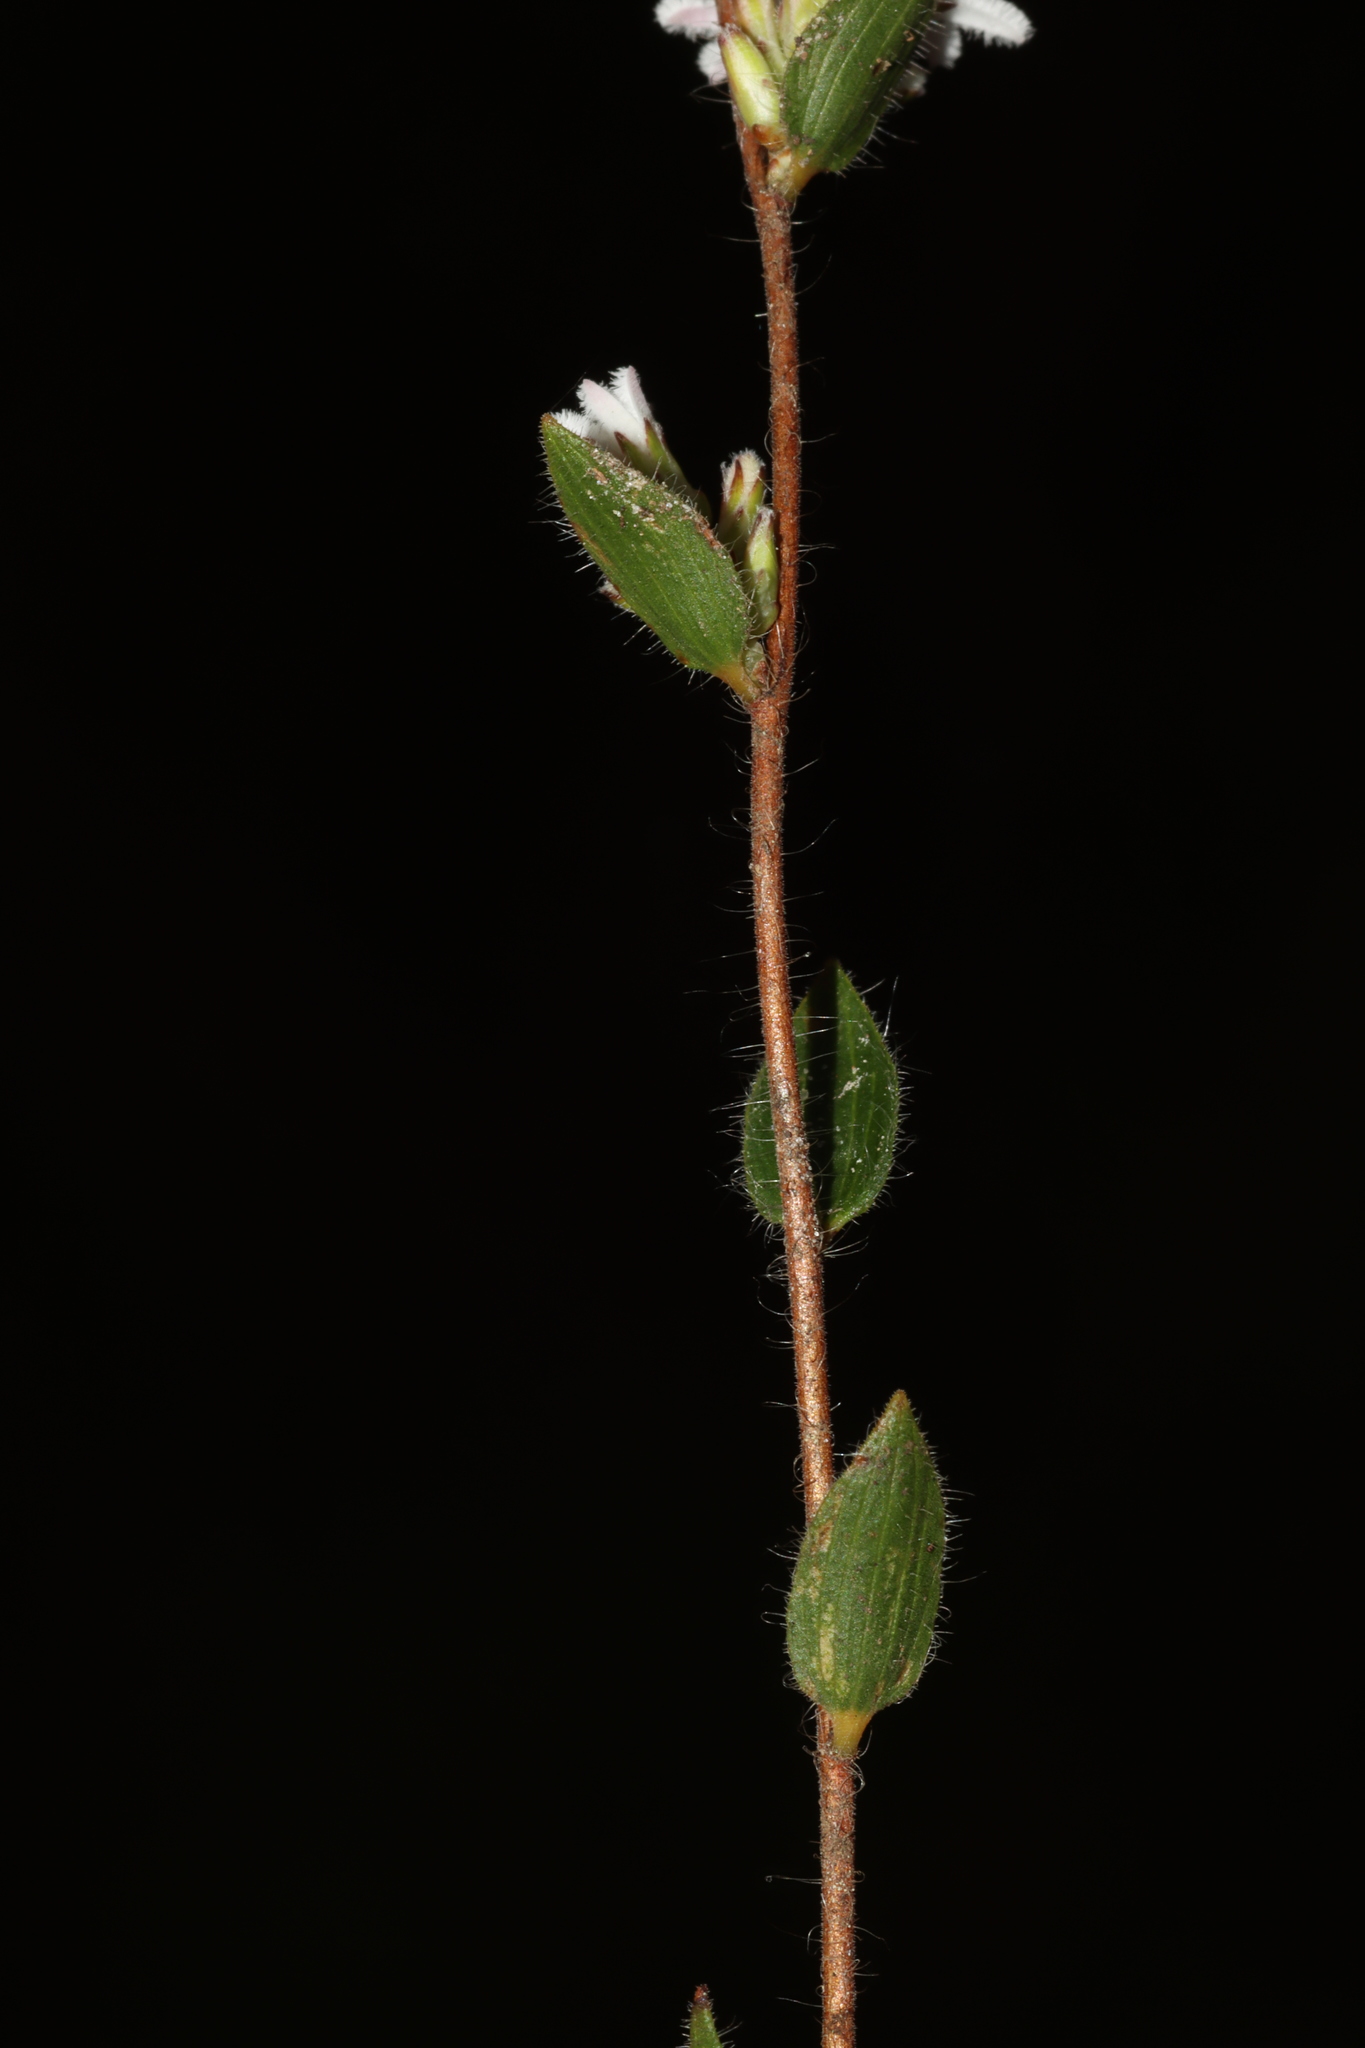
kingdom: Plantae
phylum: Tracheophyta
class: Magnoliopsida
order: Ericales
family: Ericaceae
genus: Leucopogon
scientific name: Leucopogon concurvus
